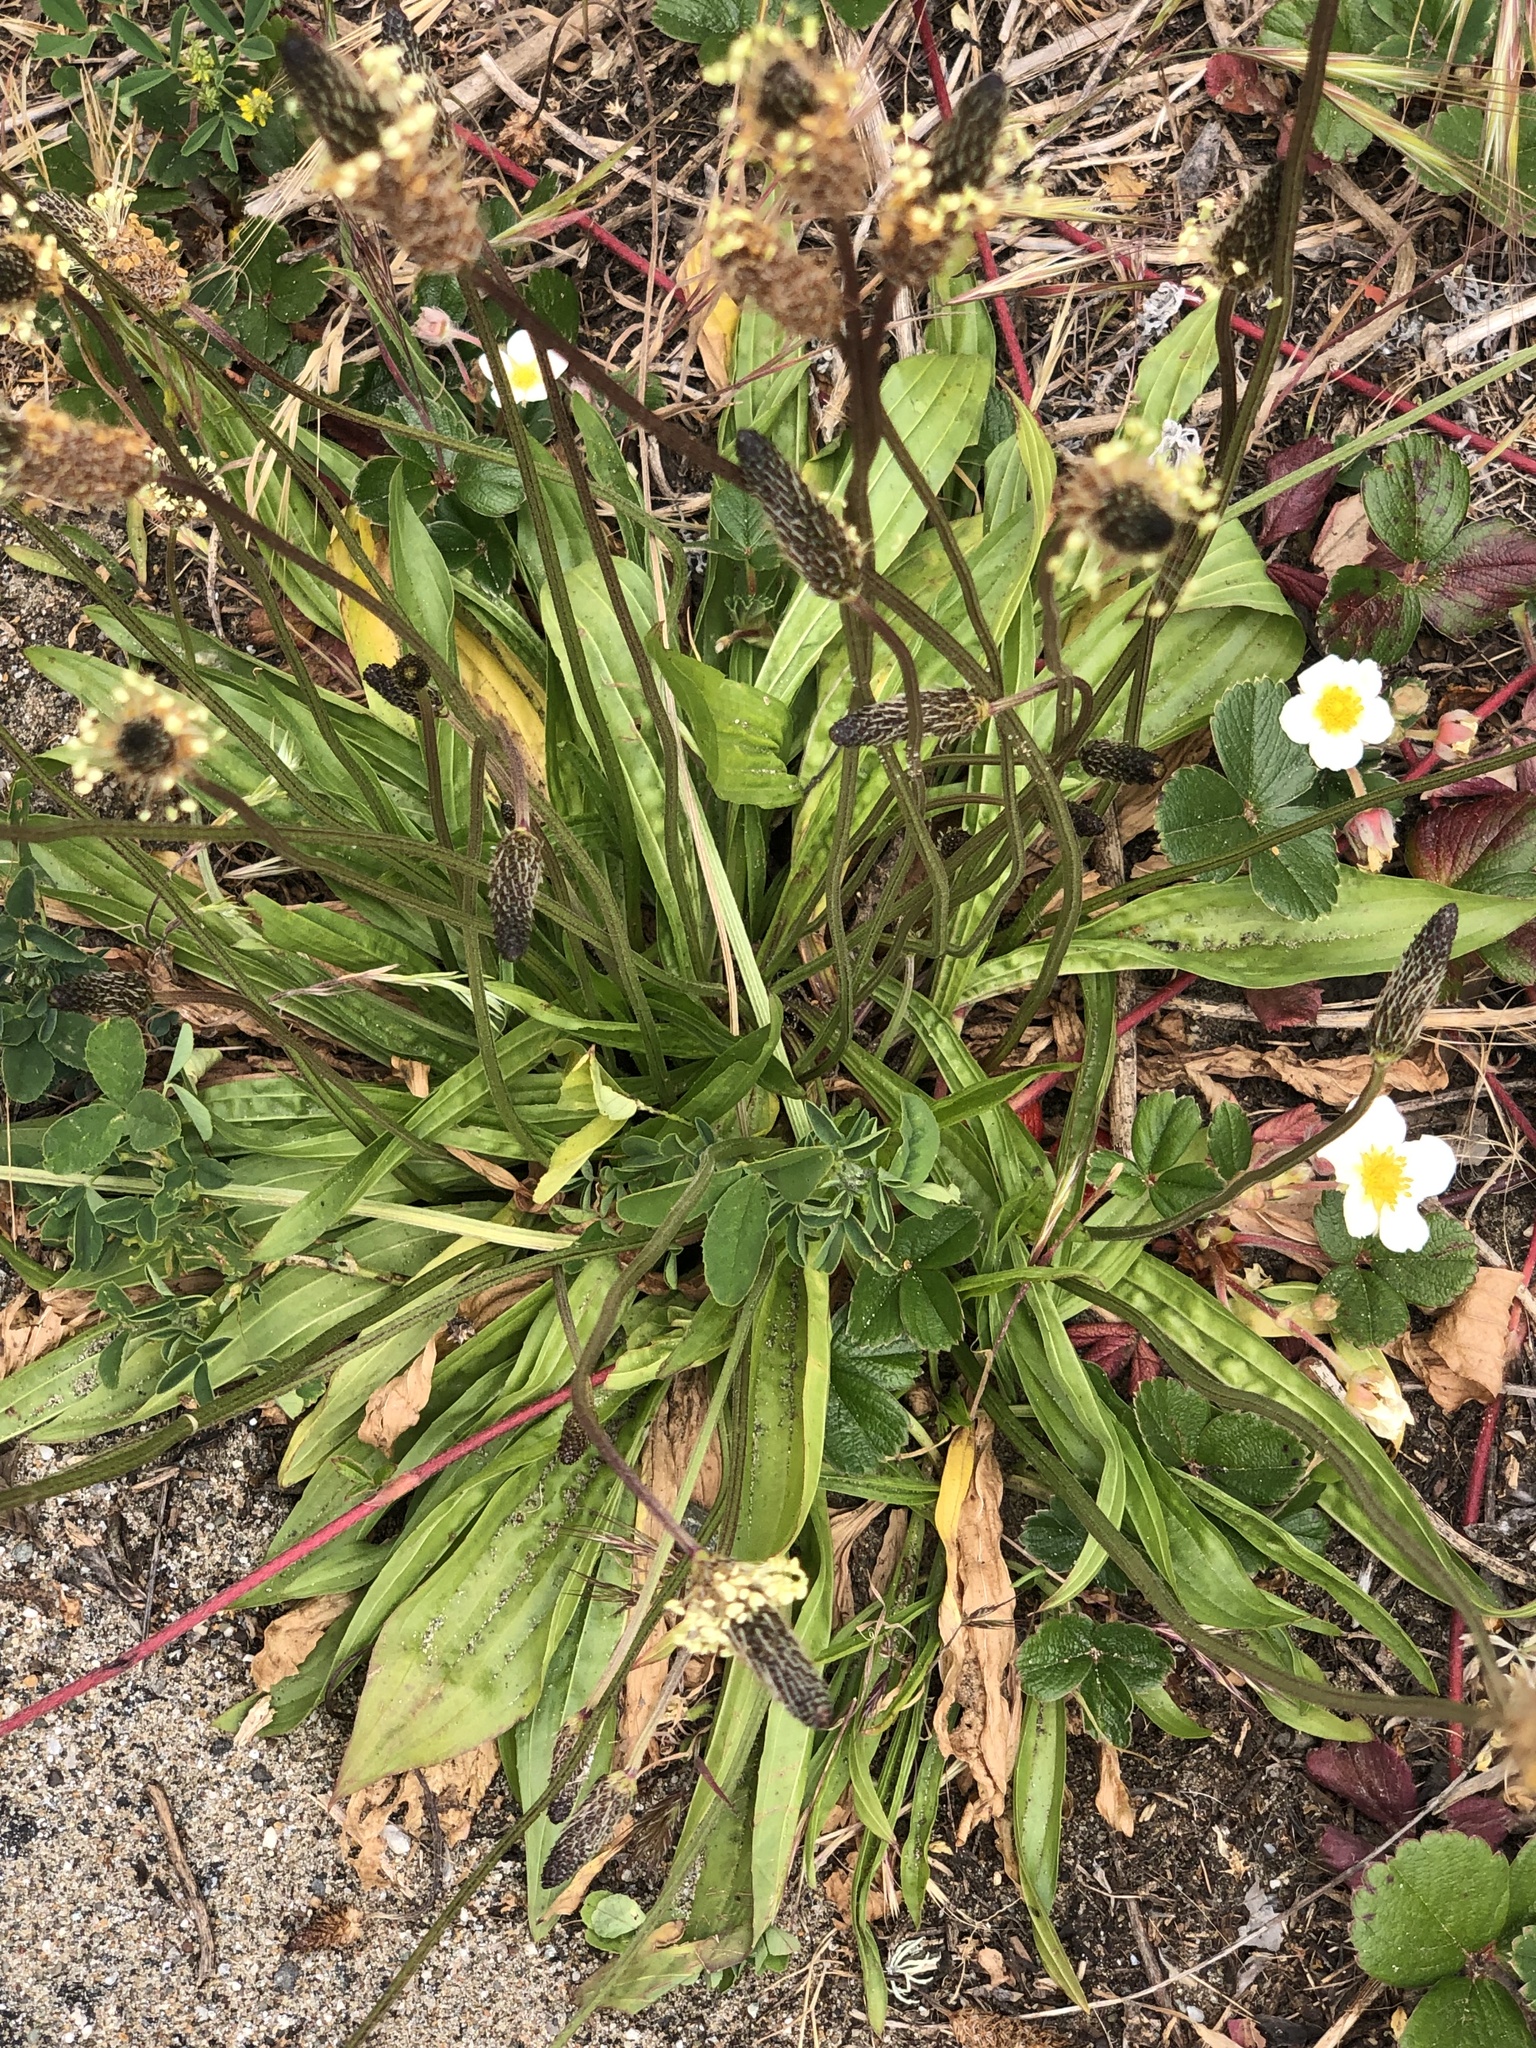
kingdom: Plantae
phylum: Tracheophyta
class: Magnoliopsida
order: Lamiales
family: Plantaginaceae
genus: Plantago
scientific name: Plantago lanceolata
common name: Ribwort plantain
